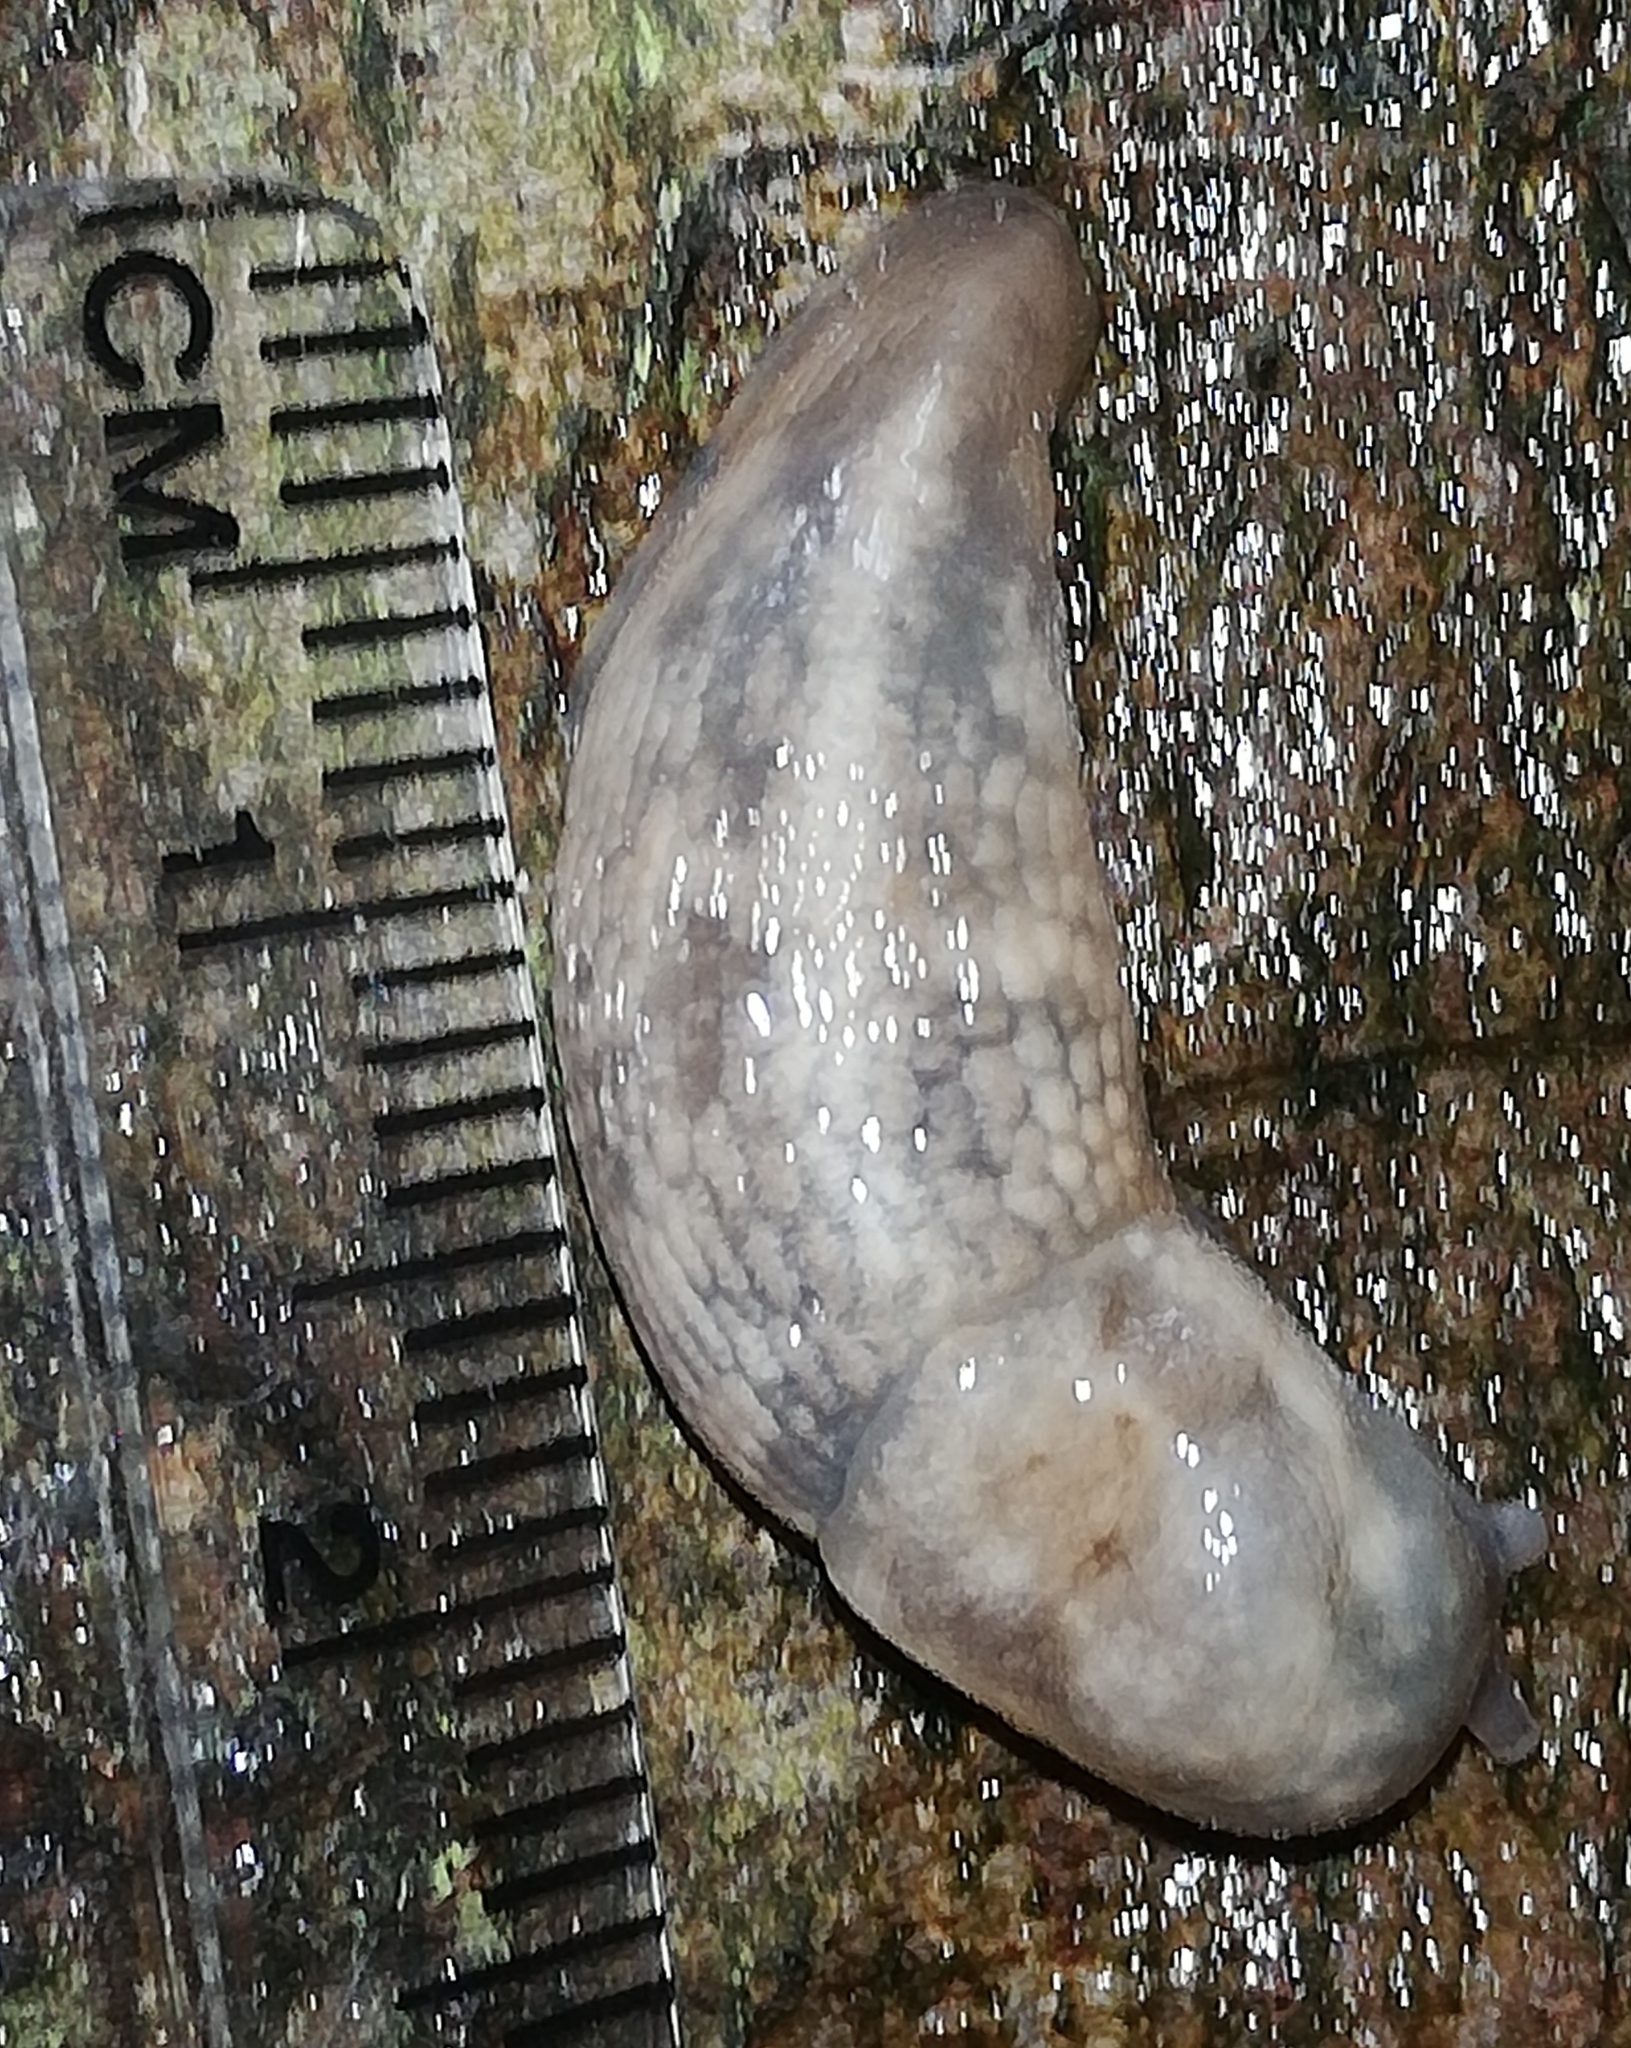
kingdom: Animalia
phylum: Mollusca
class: Gastropoda
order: Stylommatophora
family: Limacidae
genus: Lehmannia
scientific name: Lehmannia marginata
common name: Tree slug
